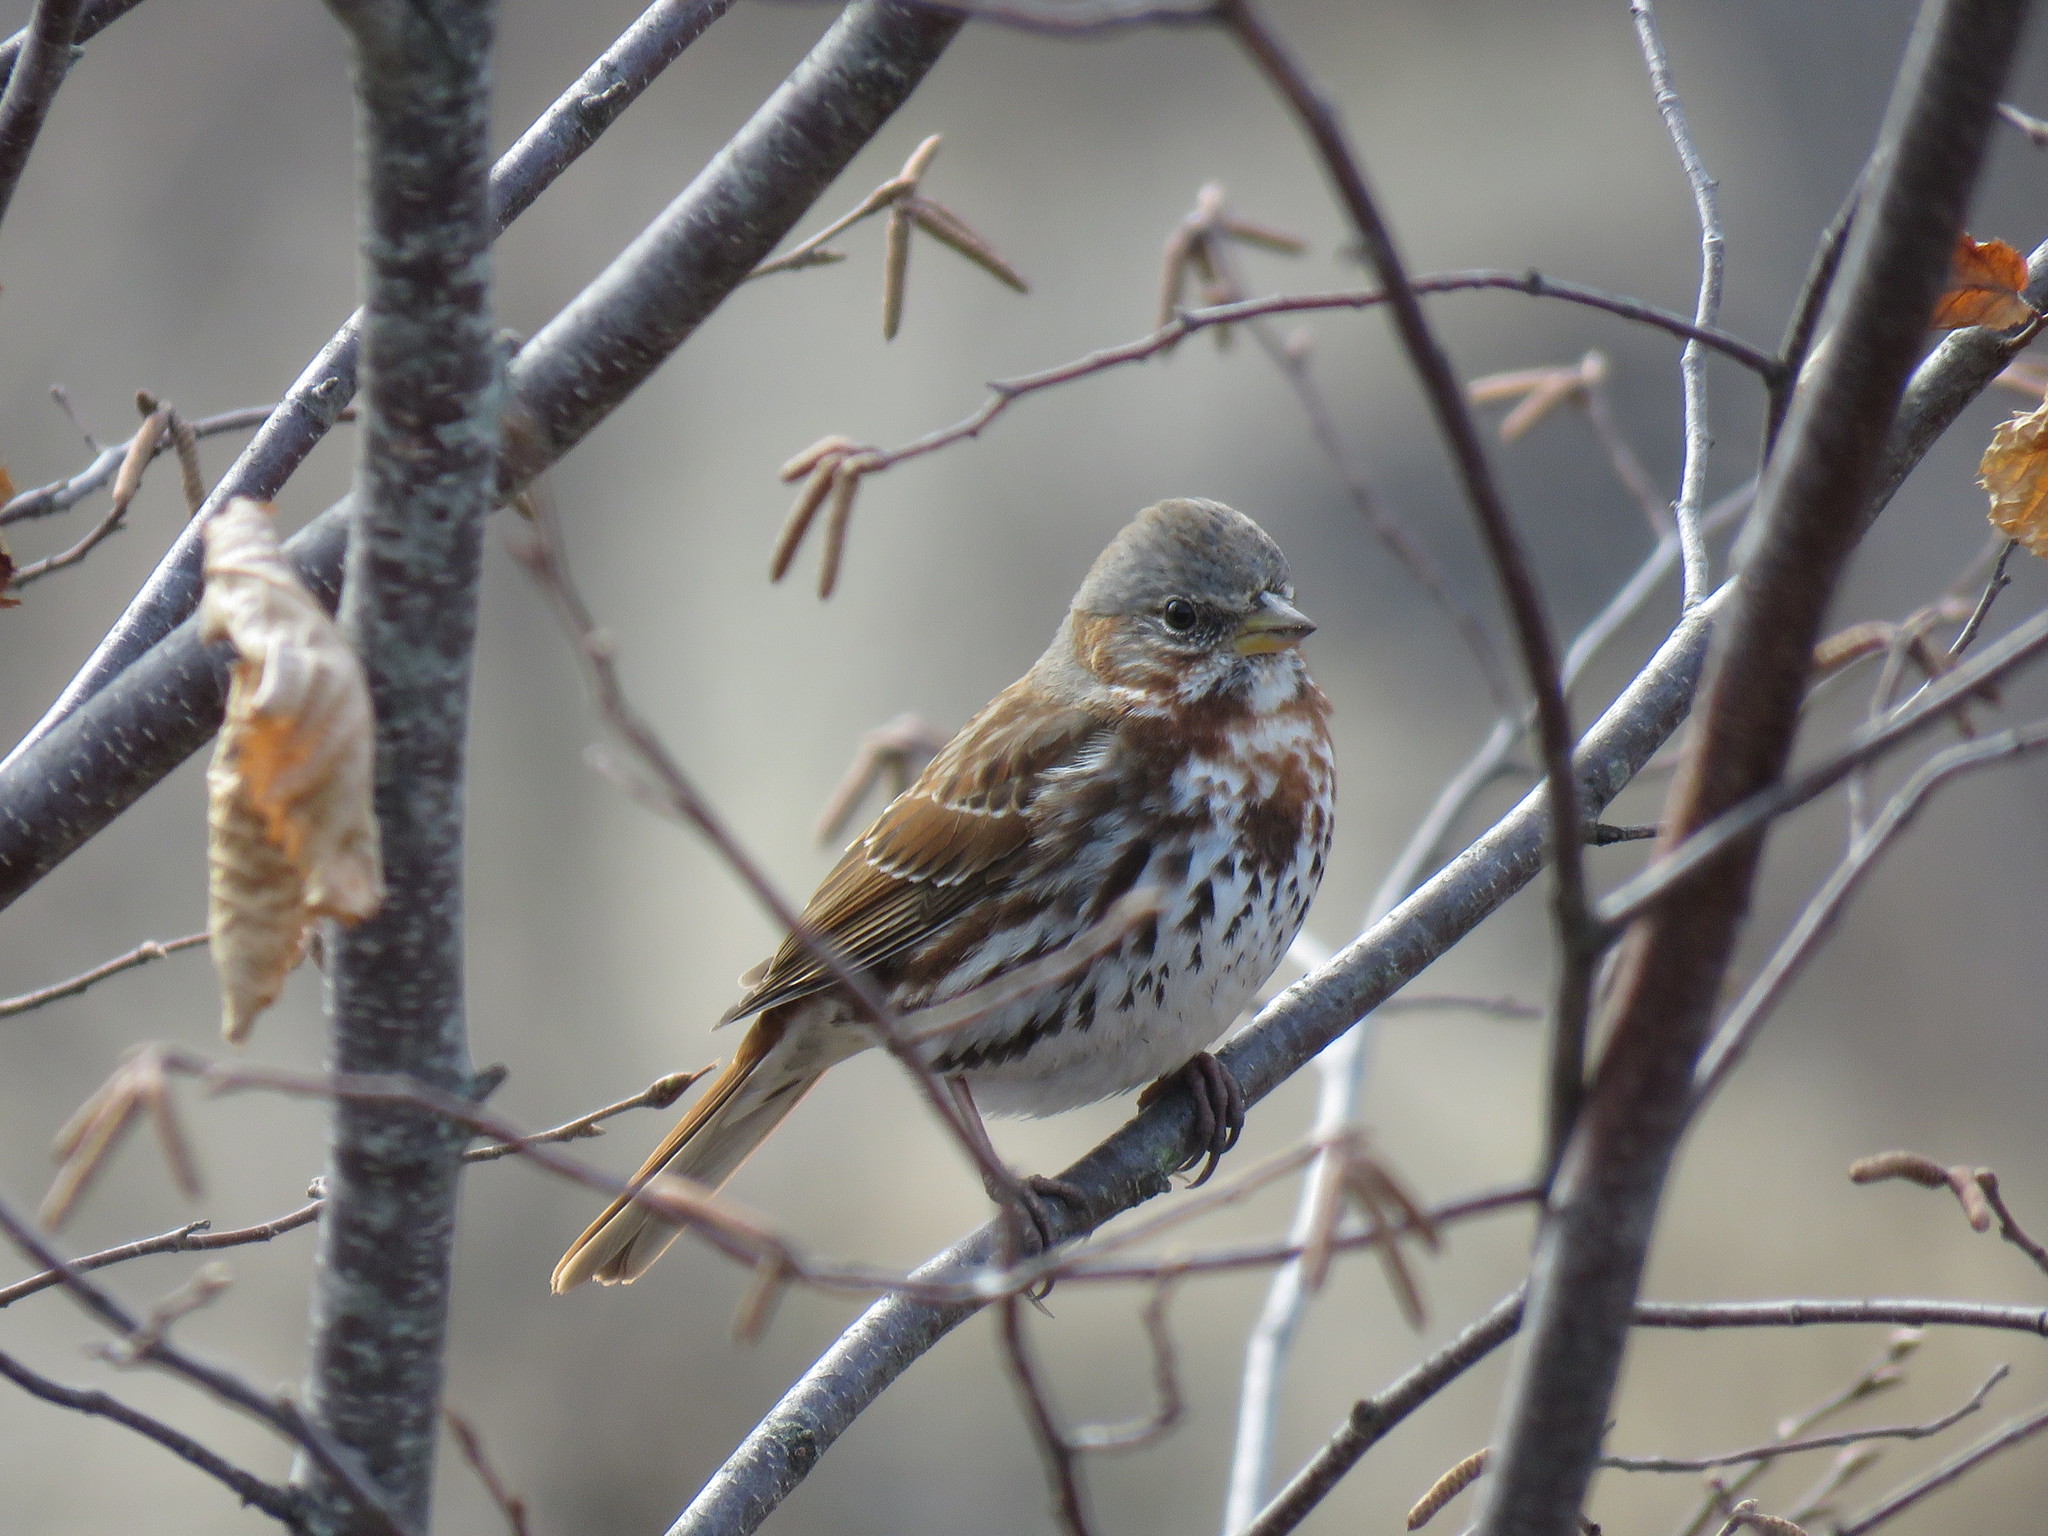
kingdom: Animalia
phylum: Chordata
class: Aves
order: Passeriformes
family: Passerellidae
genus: Passerella
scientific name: Passerella iliaca
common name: Fox sparrow
